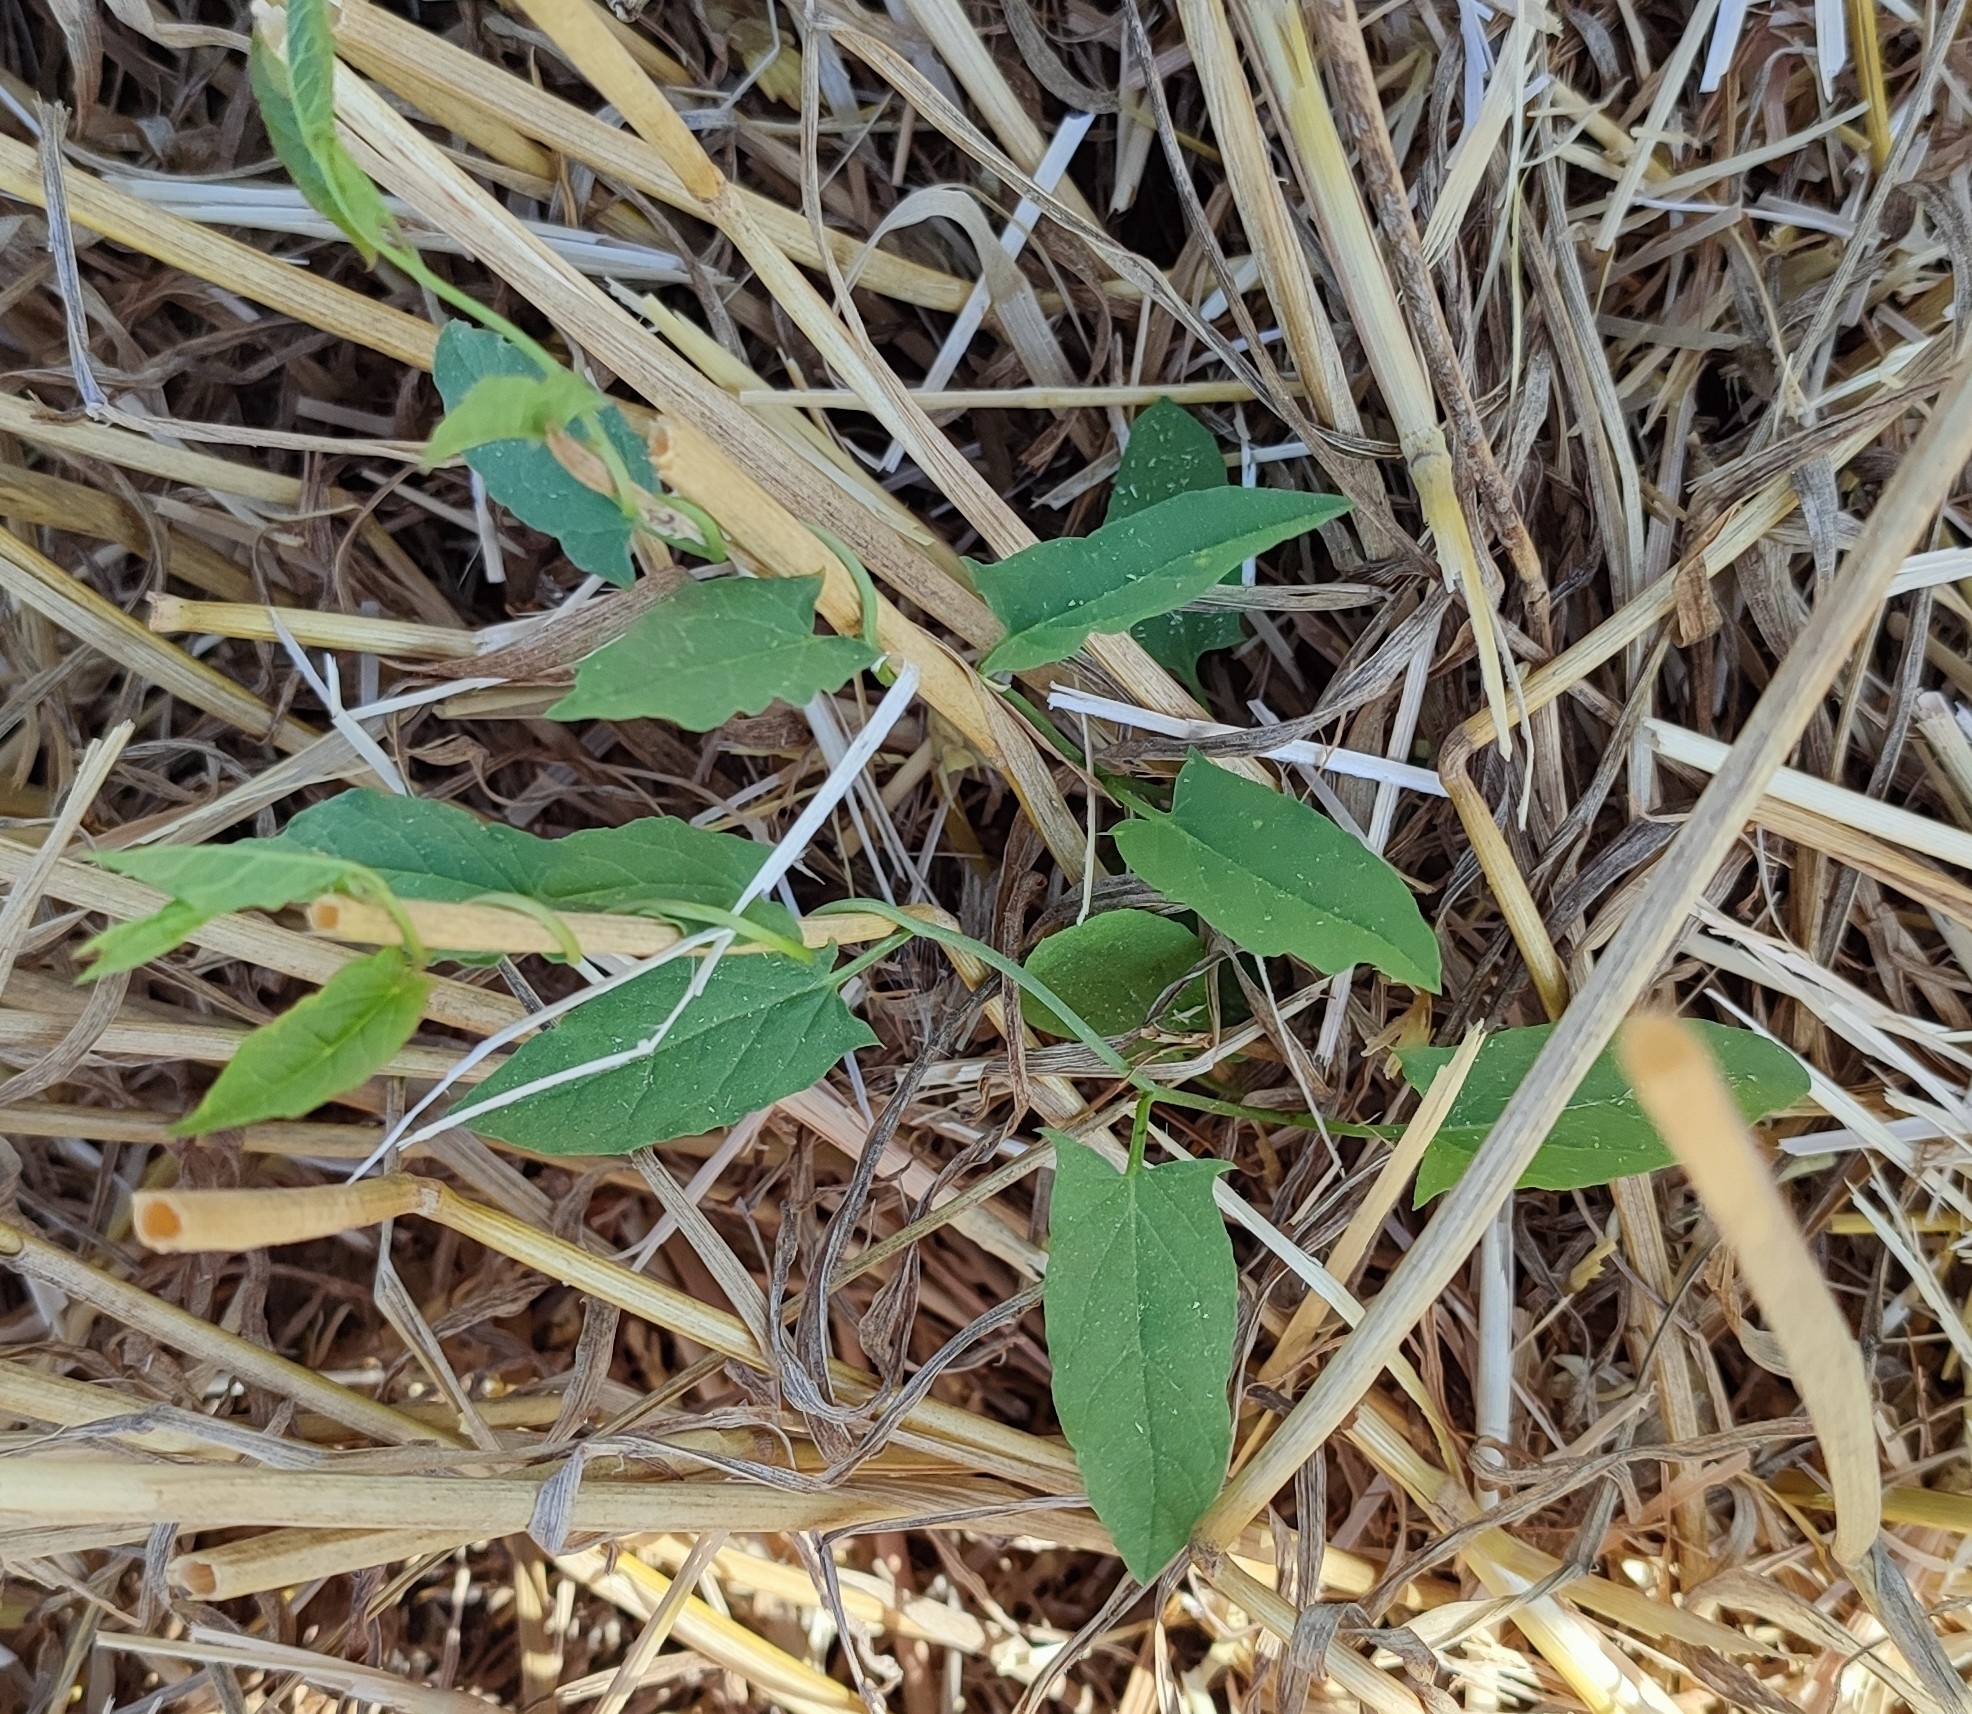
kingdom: Plantae
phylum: Tracheophyta
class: Magnoliopsida
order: Solanales
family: Convolvulaceae
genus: Convolvulus
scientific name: Convolvulus arvensis
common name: Field bindweed
